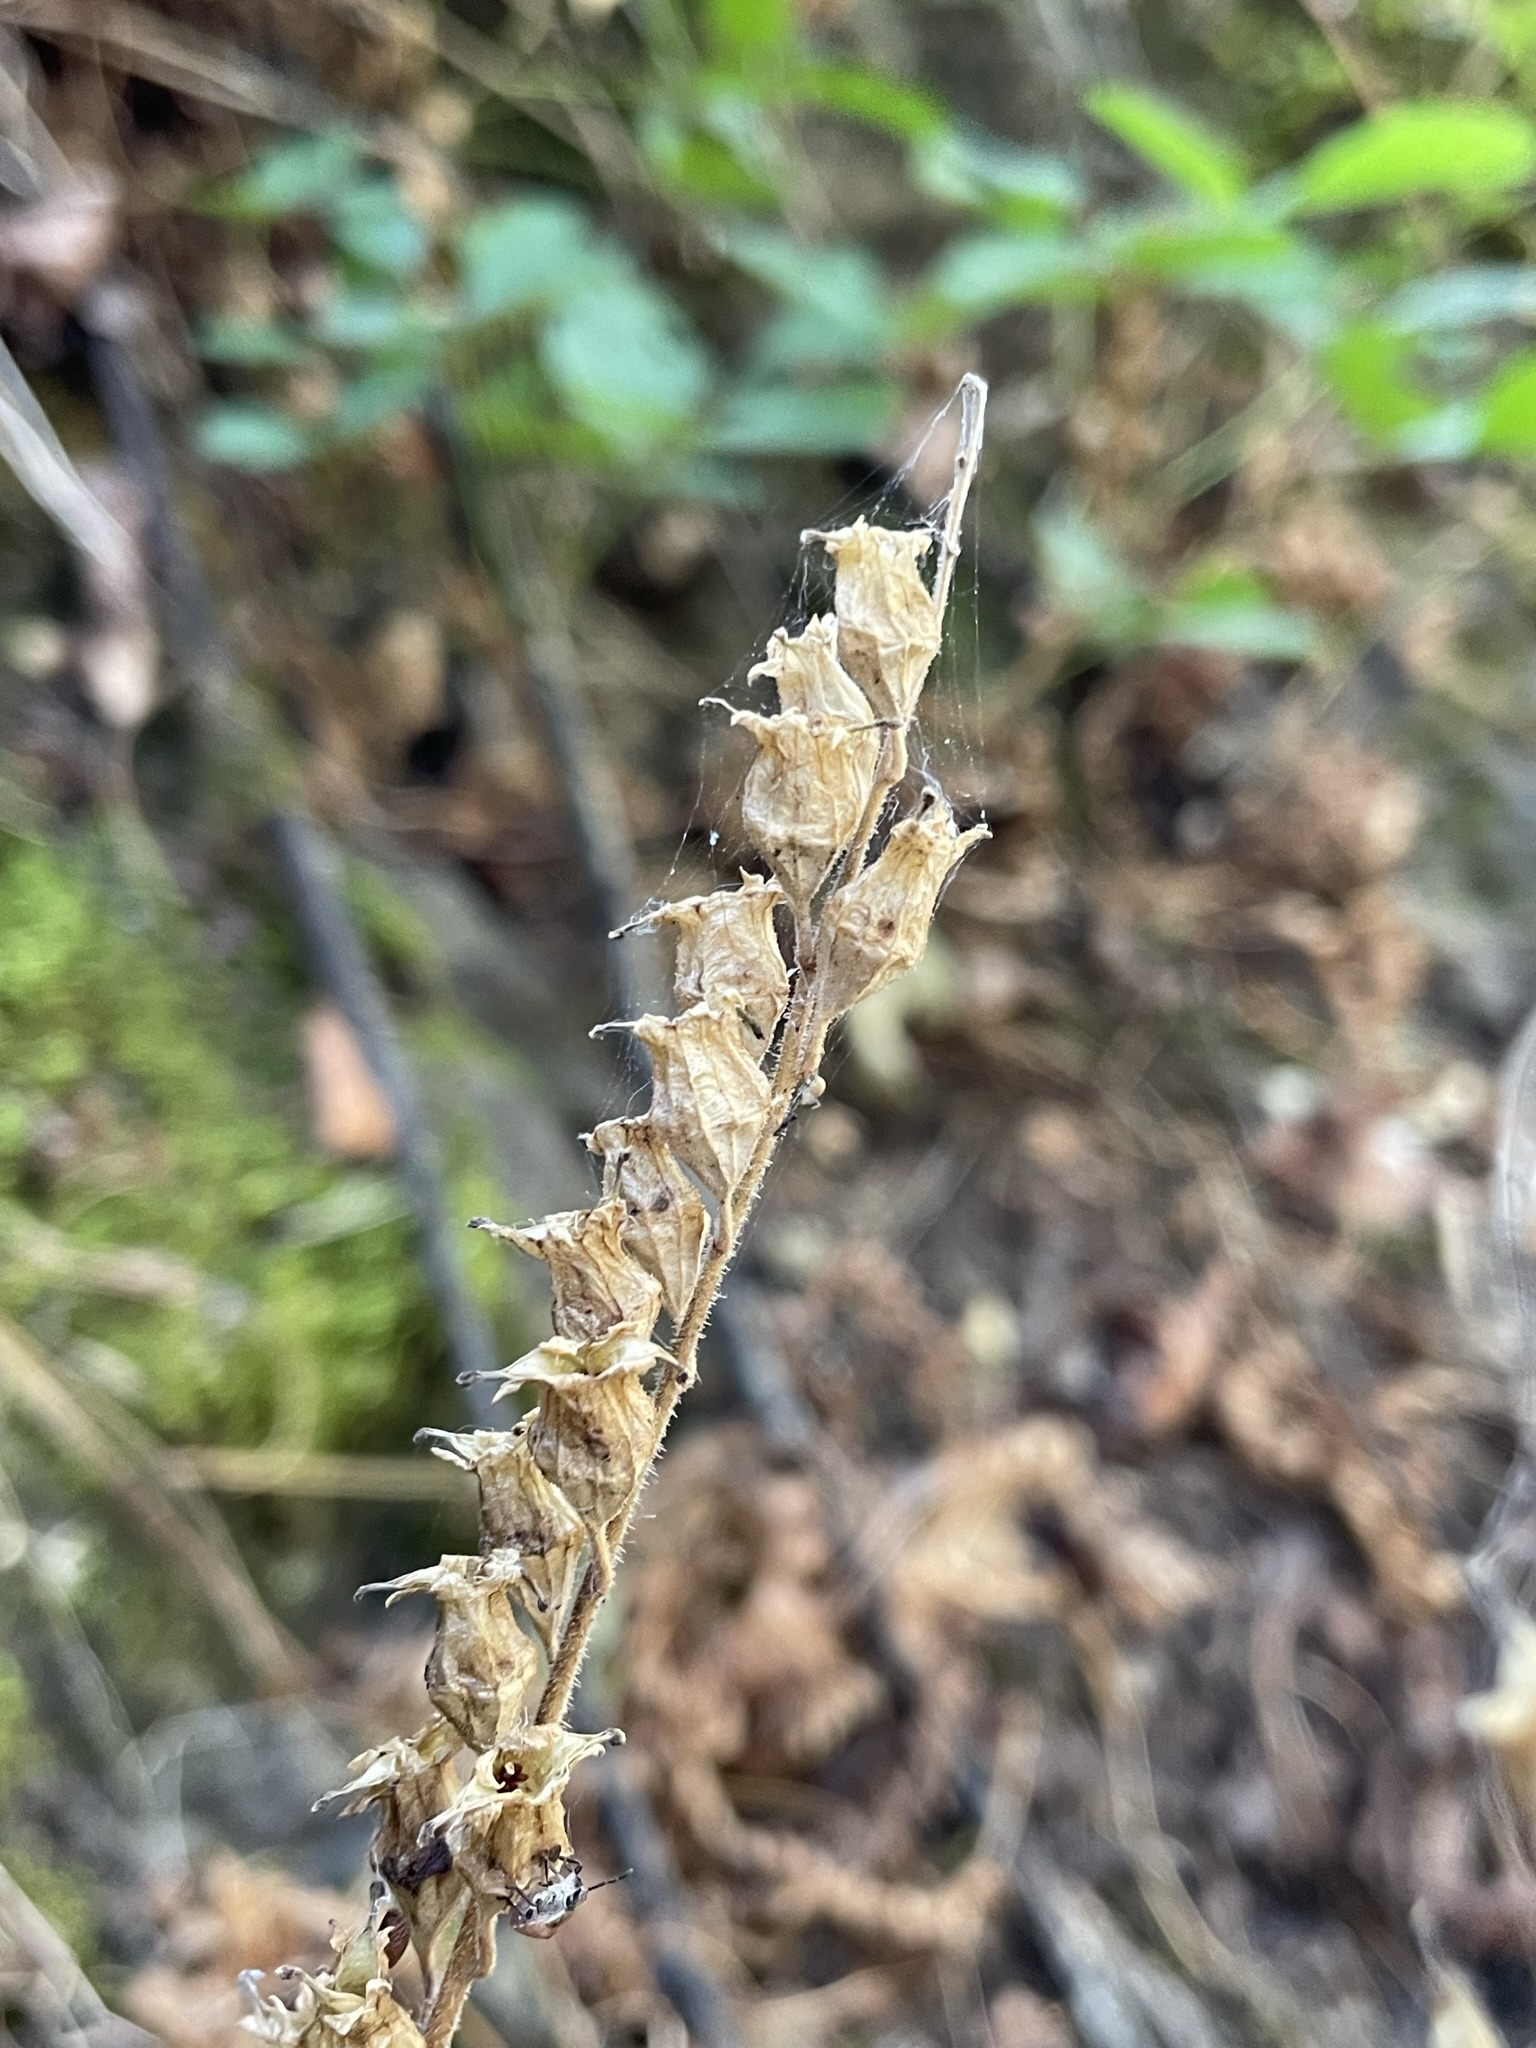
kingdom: Plantae
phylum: Tracheophyta
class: Magnoliopsida
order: Saxifragales
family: Saxifragaceae
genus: Tellima
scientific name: Tellima grandiflora
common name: Fringecups
